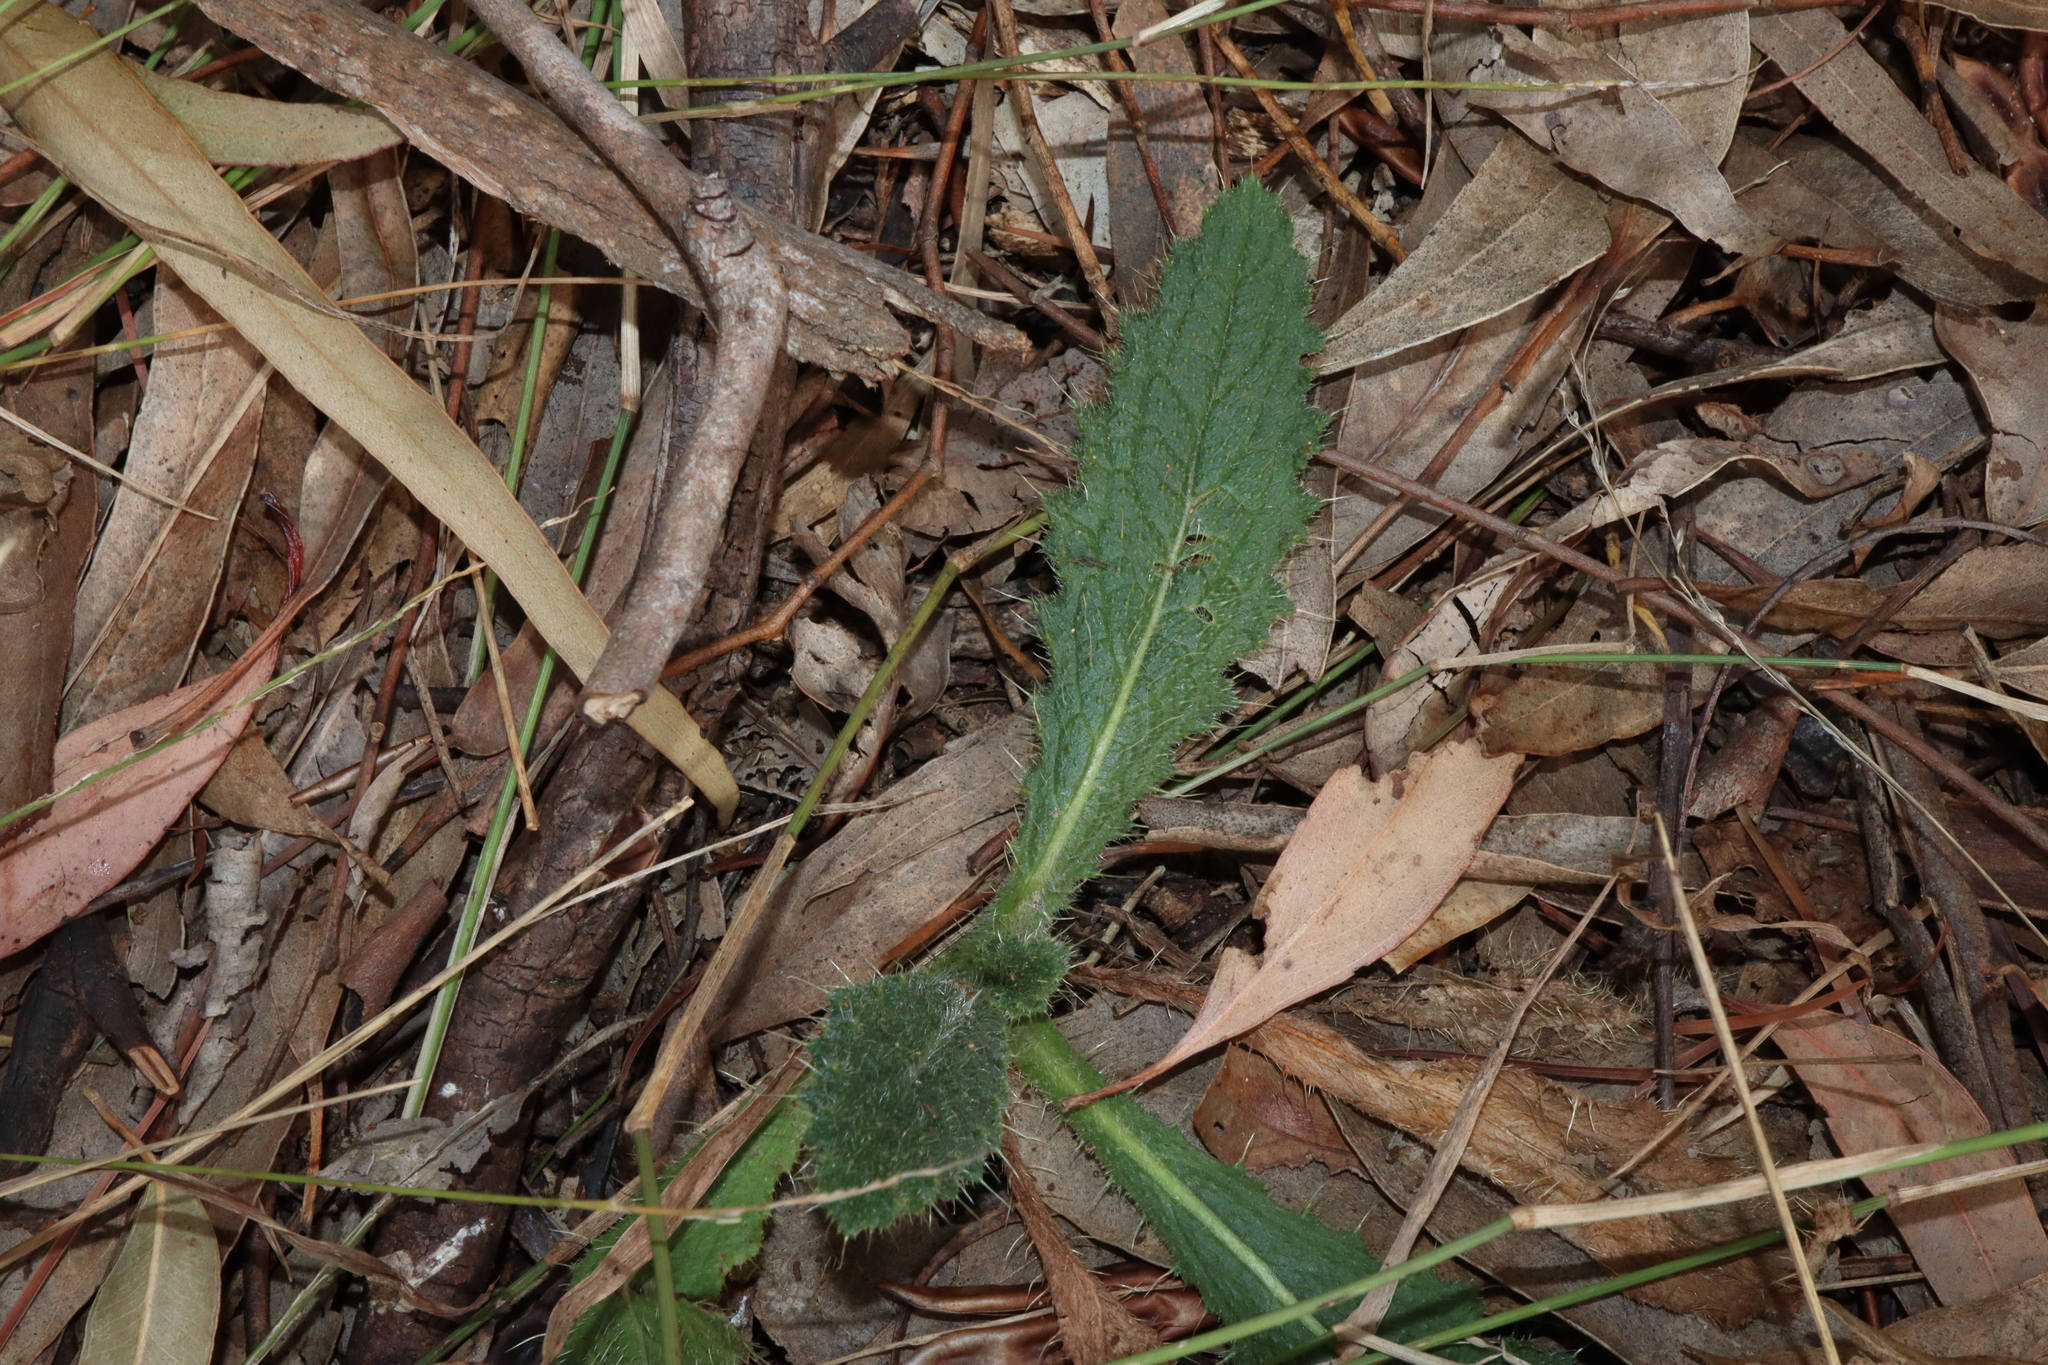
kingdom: Plantae
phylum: Tracheophyta
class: Magnoliopsida
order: Asterales
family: Asteraceae
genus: Cirsium
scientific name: Cirsium vulgare
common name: Bull thistle
